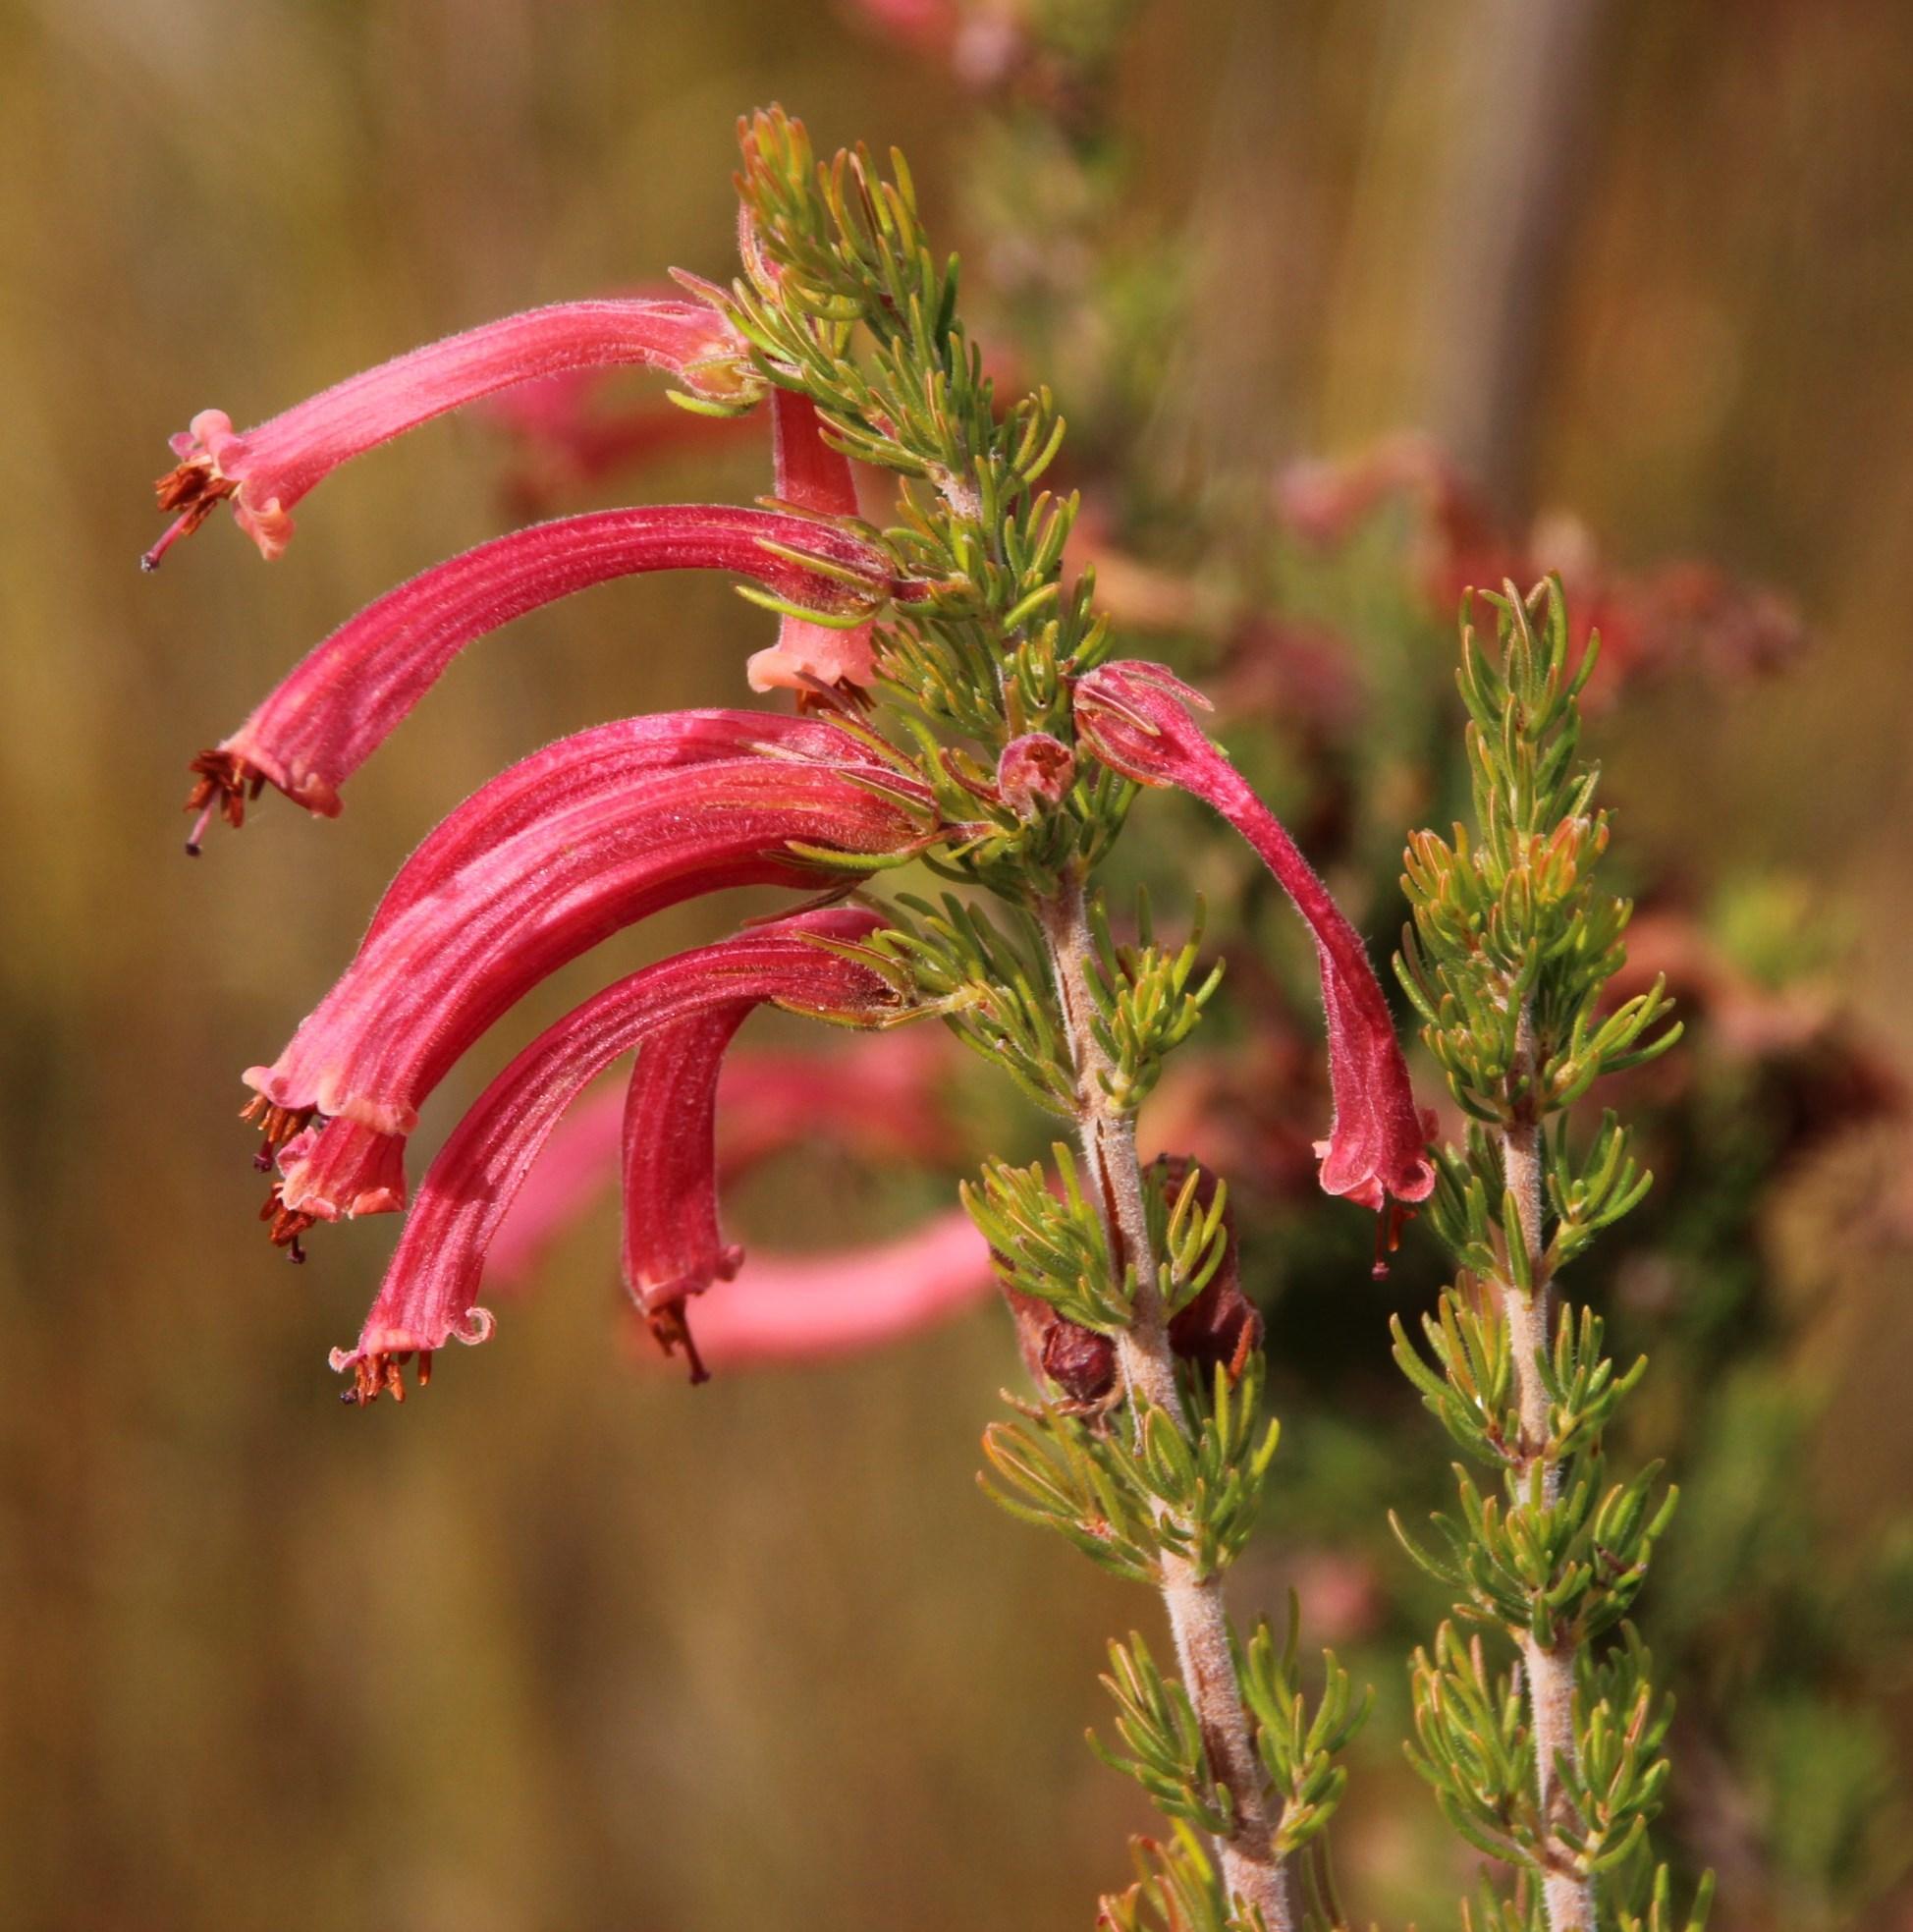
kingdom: Plantae
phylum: Tracheophyta
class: Magnoliopsida
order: Ericales
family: Ericaceae
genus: Erica
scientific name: Erica curviflora
